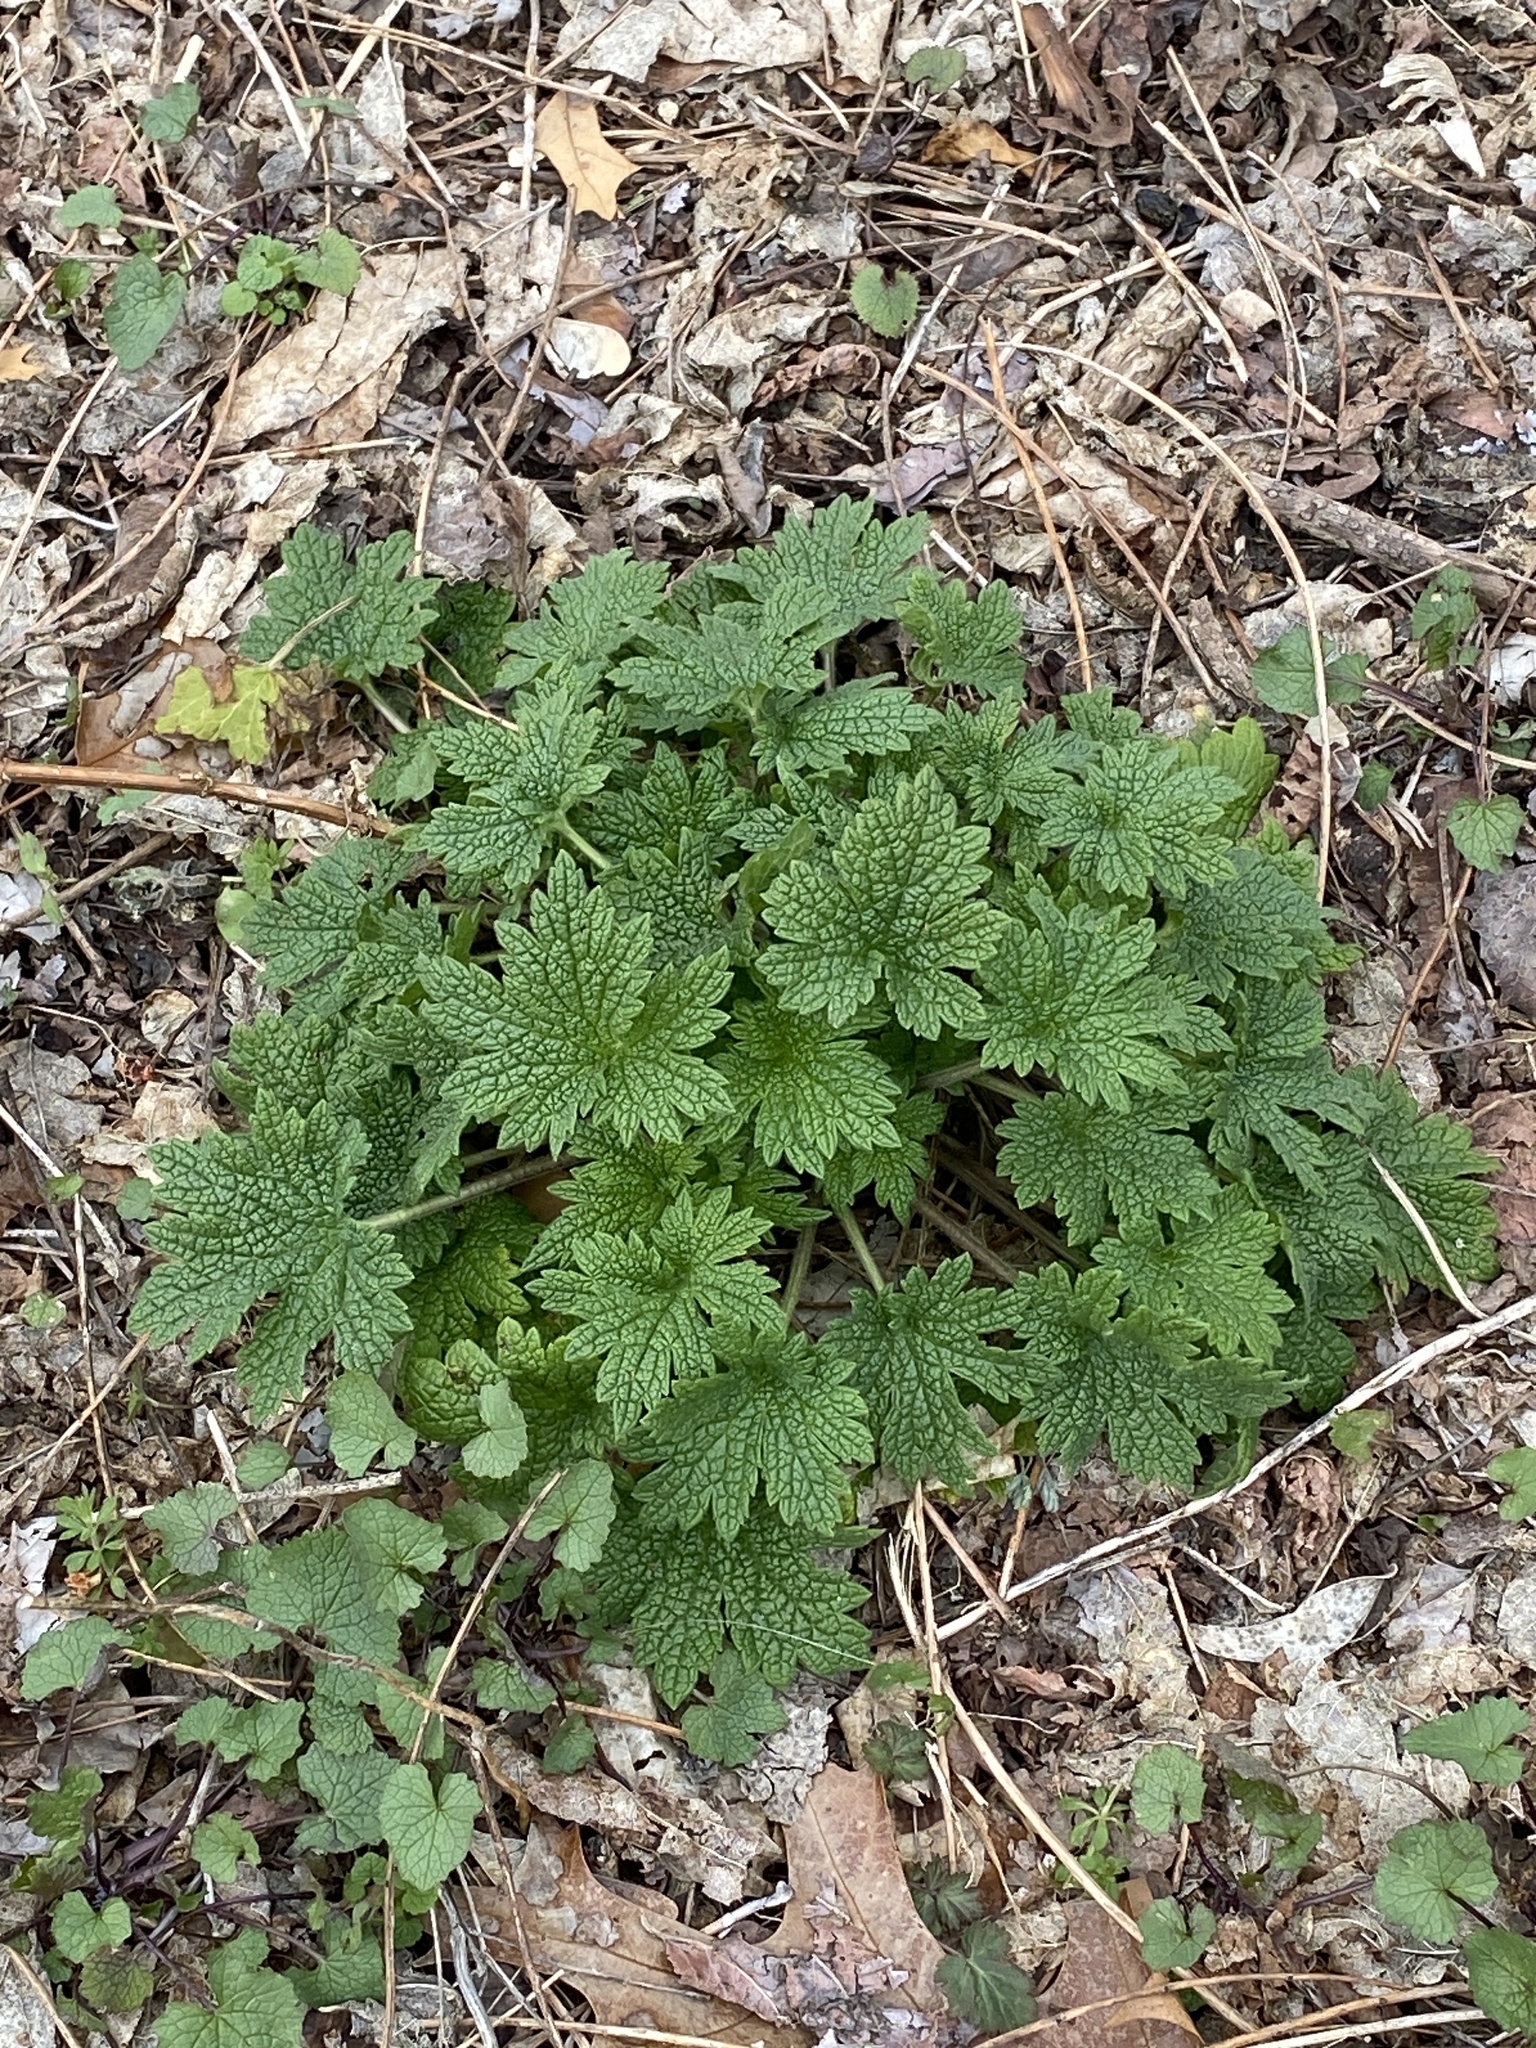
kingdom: Plantae
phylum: Tracheophyta
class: Magnoliopsida
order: Lamiales
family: Lamiaceae
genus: Leonurus
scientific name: Leonurus cardiaca
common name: Motherwort
